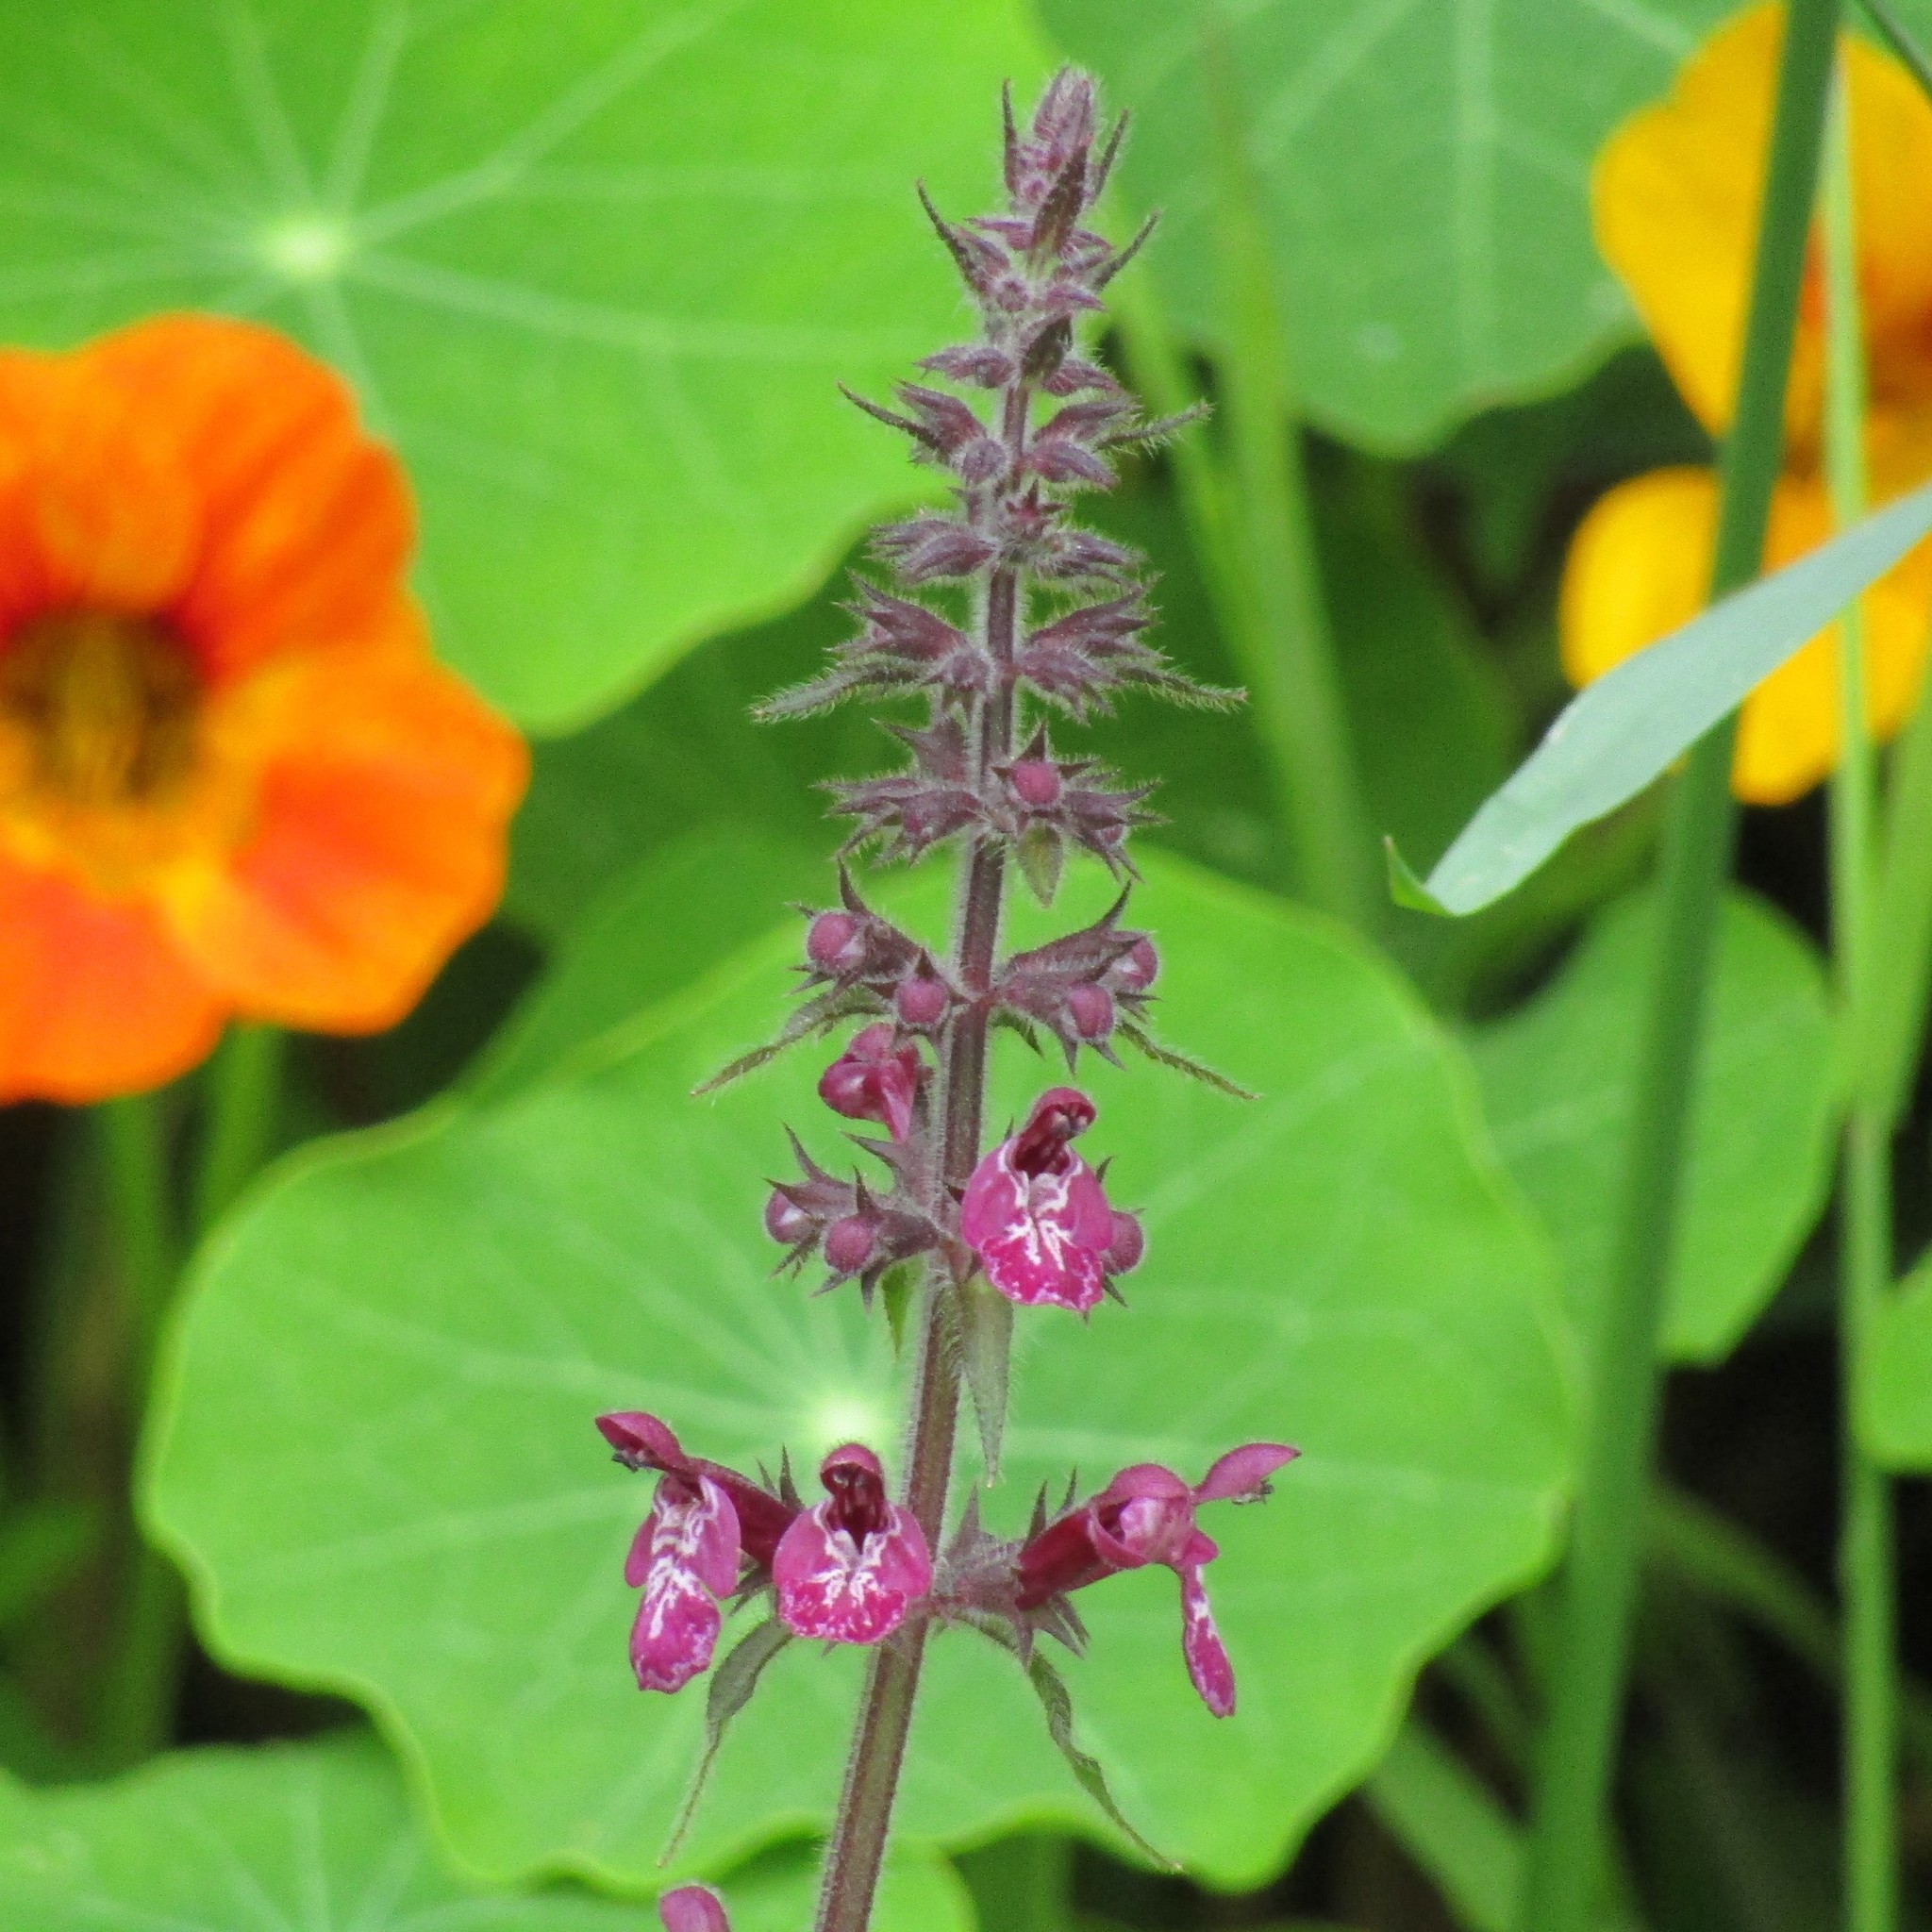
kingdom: Plantae
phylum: Tracheophyta
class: Magnoliopsida
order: Lamiales
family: Lamiaceae
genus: Stachys
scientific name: Stachys sylvatica
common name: Hedge woundwort
